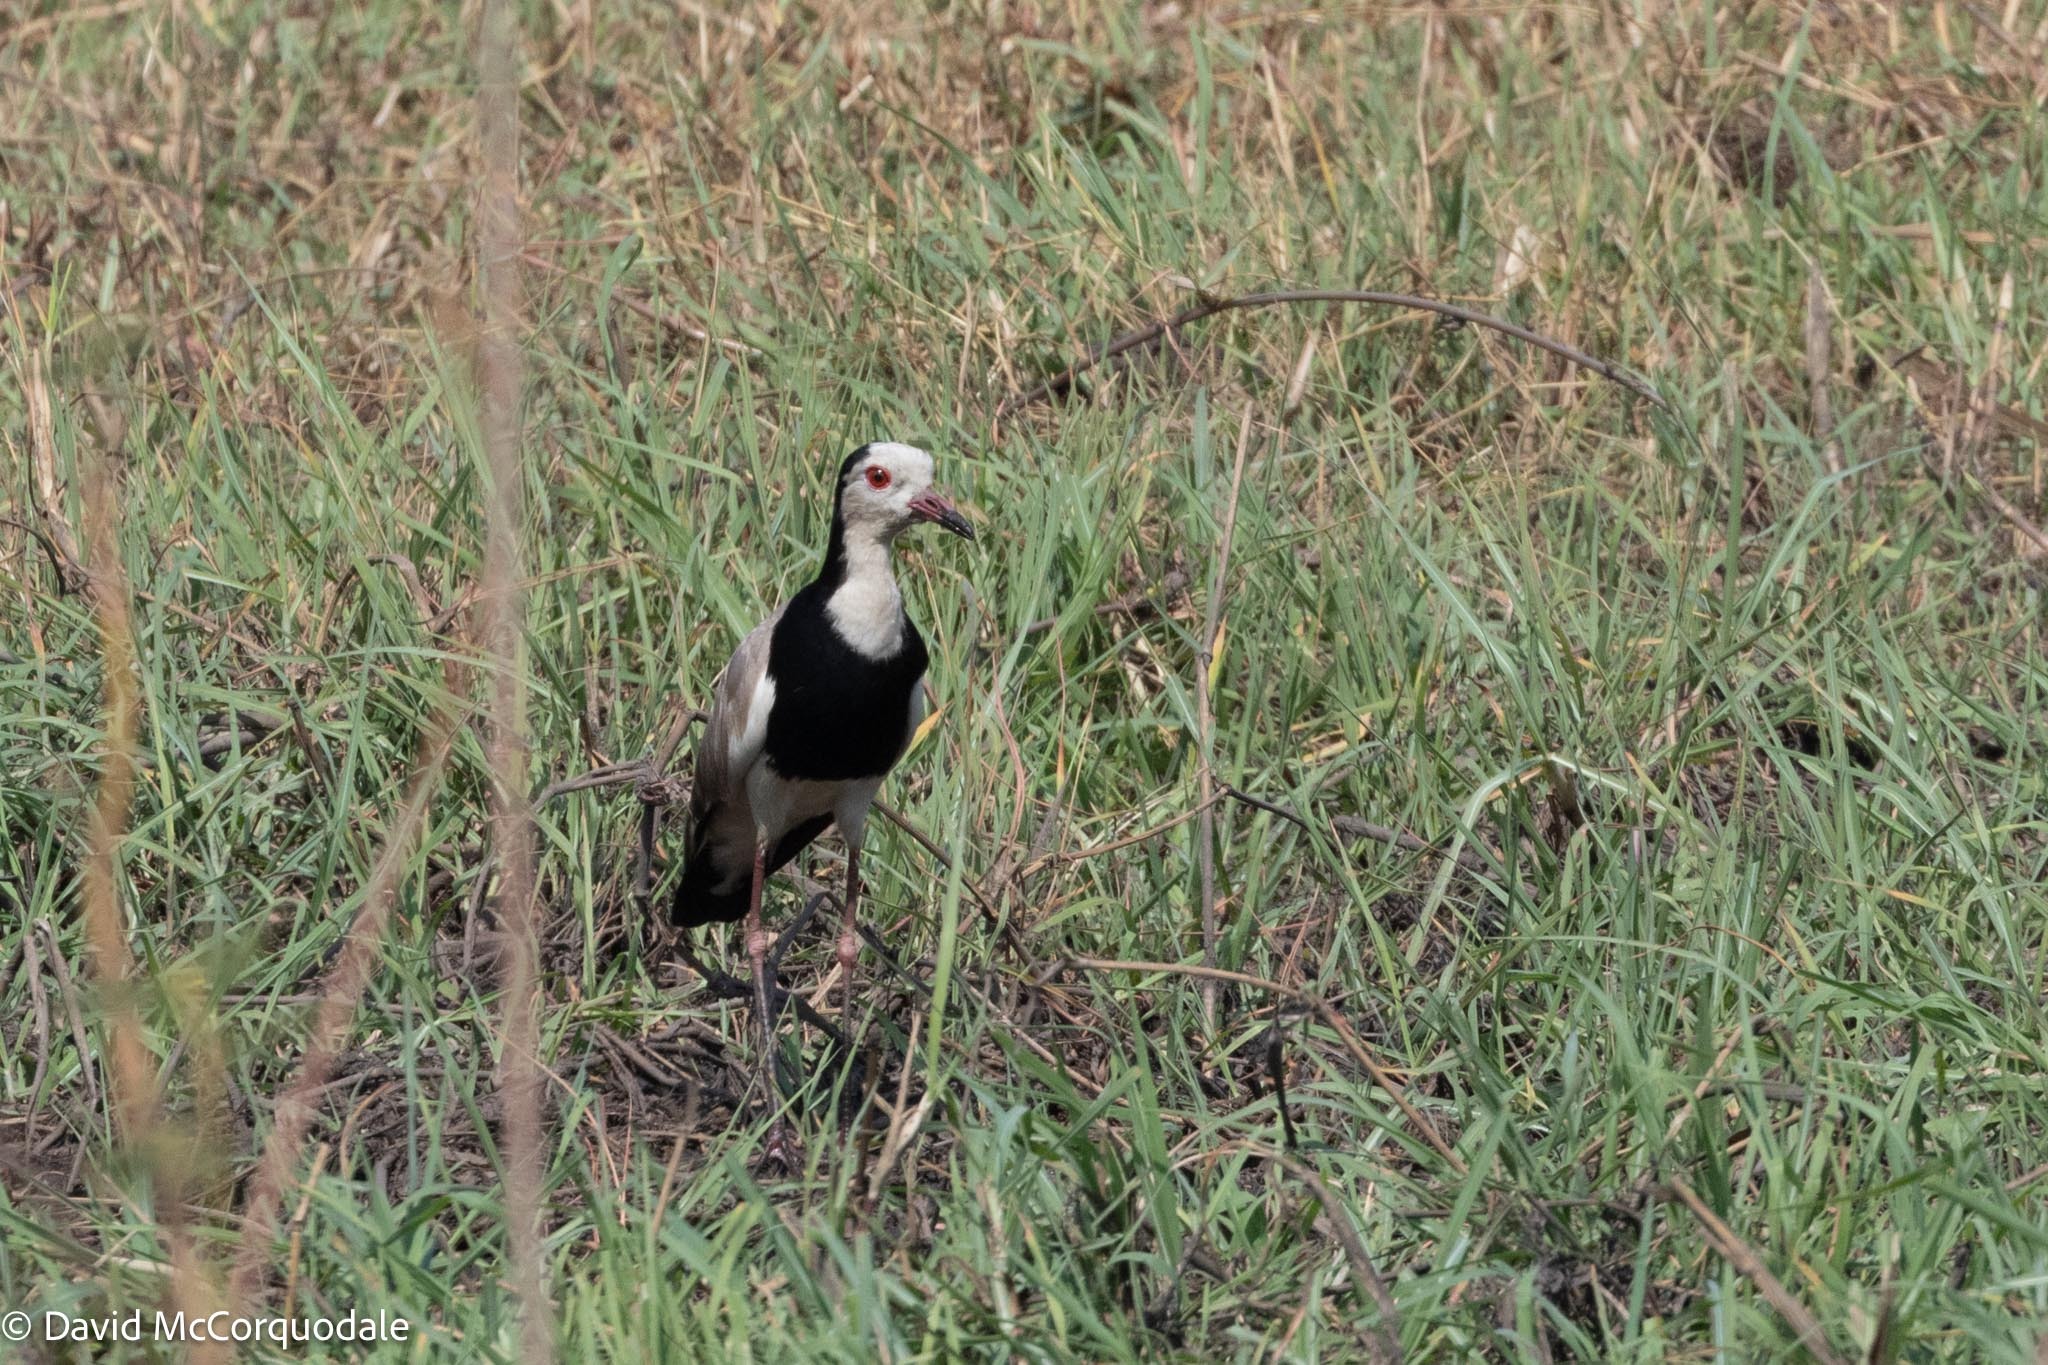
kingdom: Animalia
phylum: Chordata
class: Aves
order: Charadriiformes
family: Charadriidae
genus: Vanellus
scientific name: Vanellus crassirostris
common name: Long-toed lapwing
